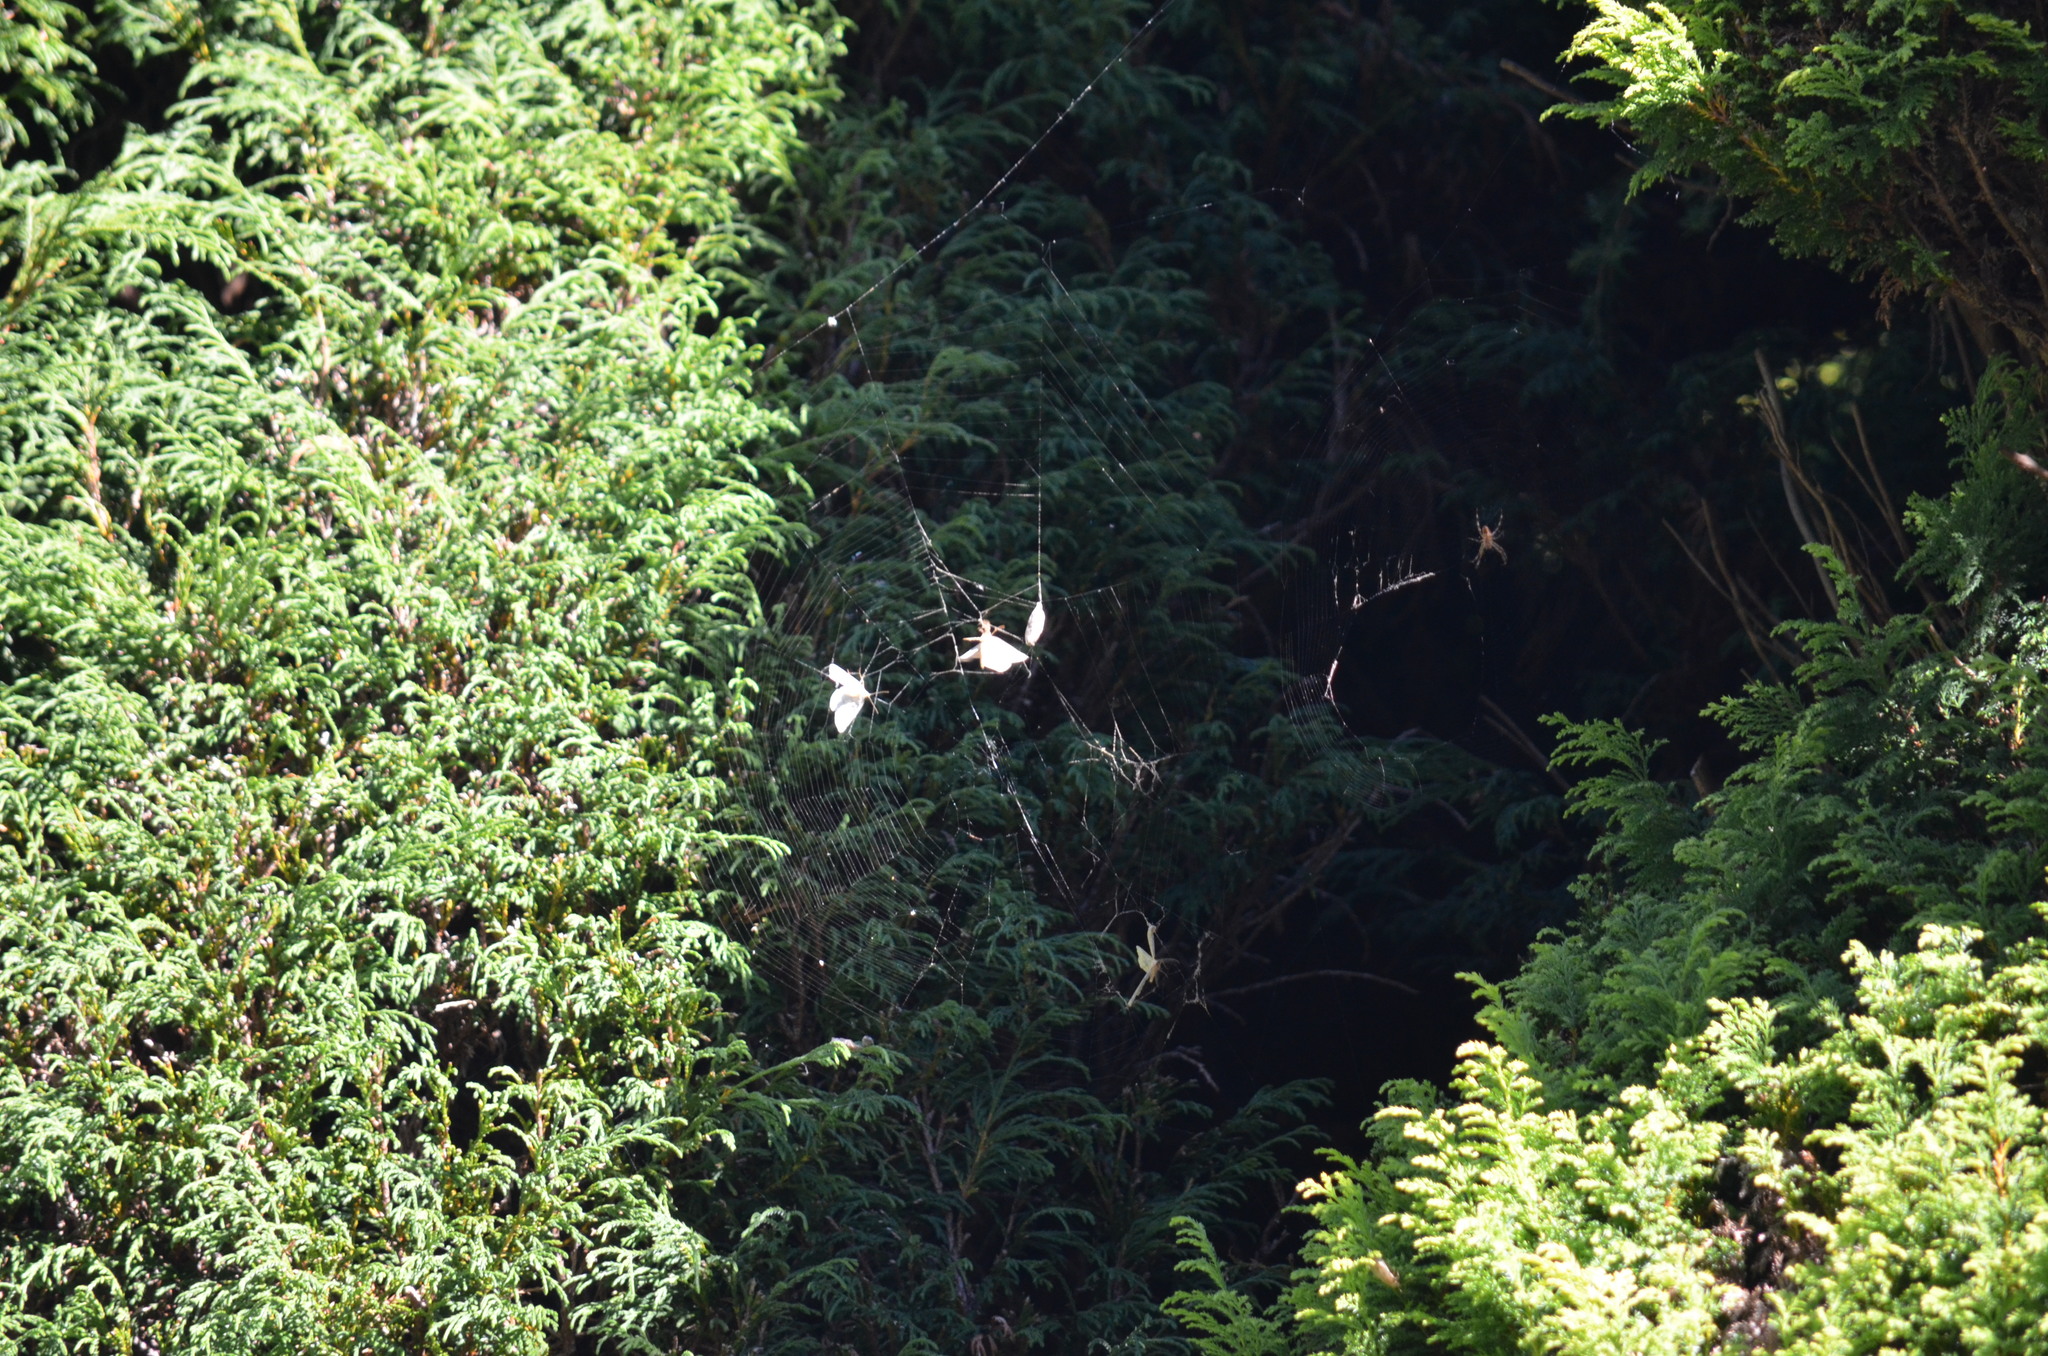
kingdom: Animalia
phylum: Arthropoda
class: Insecta
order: Lepidoptera
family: Geometridae
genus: Nepytia
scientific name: Nepytia phantasmaria
